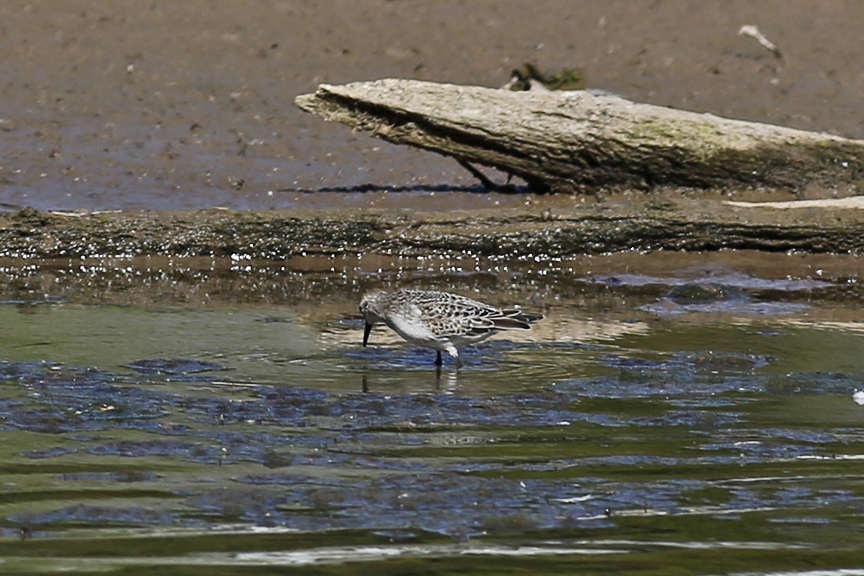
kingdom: Animalia
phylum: Chordata
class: Aves
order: Charadriiformes
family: Scolopacidae
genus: Calidris
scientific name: Calidris pusilla
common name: Semipalmated sandpiper
